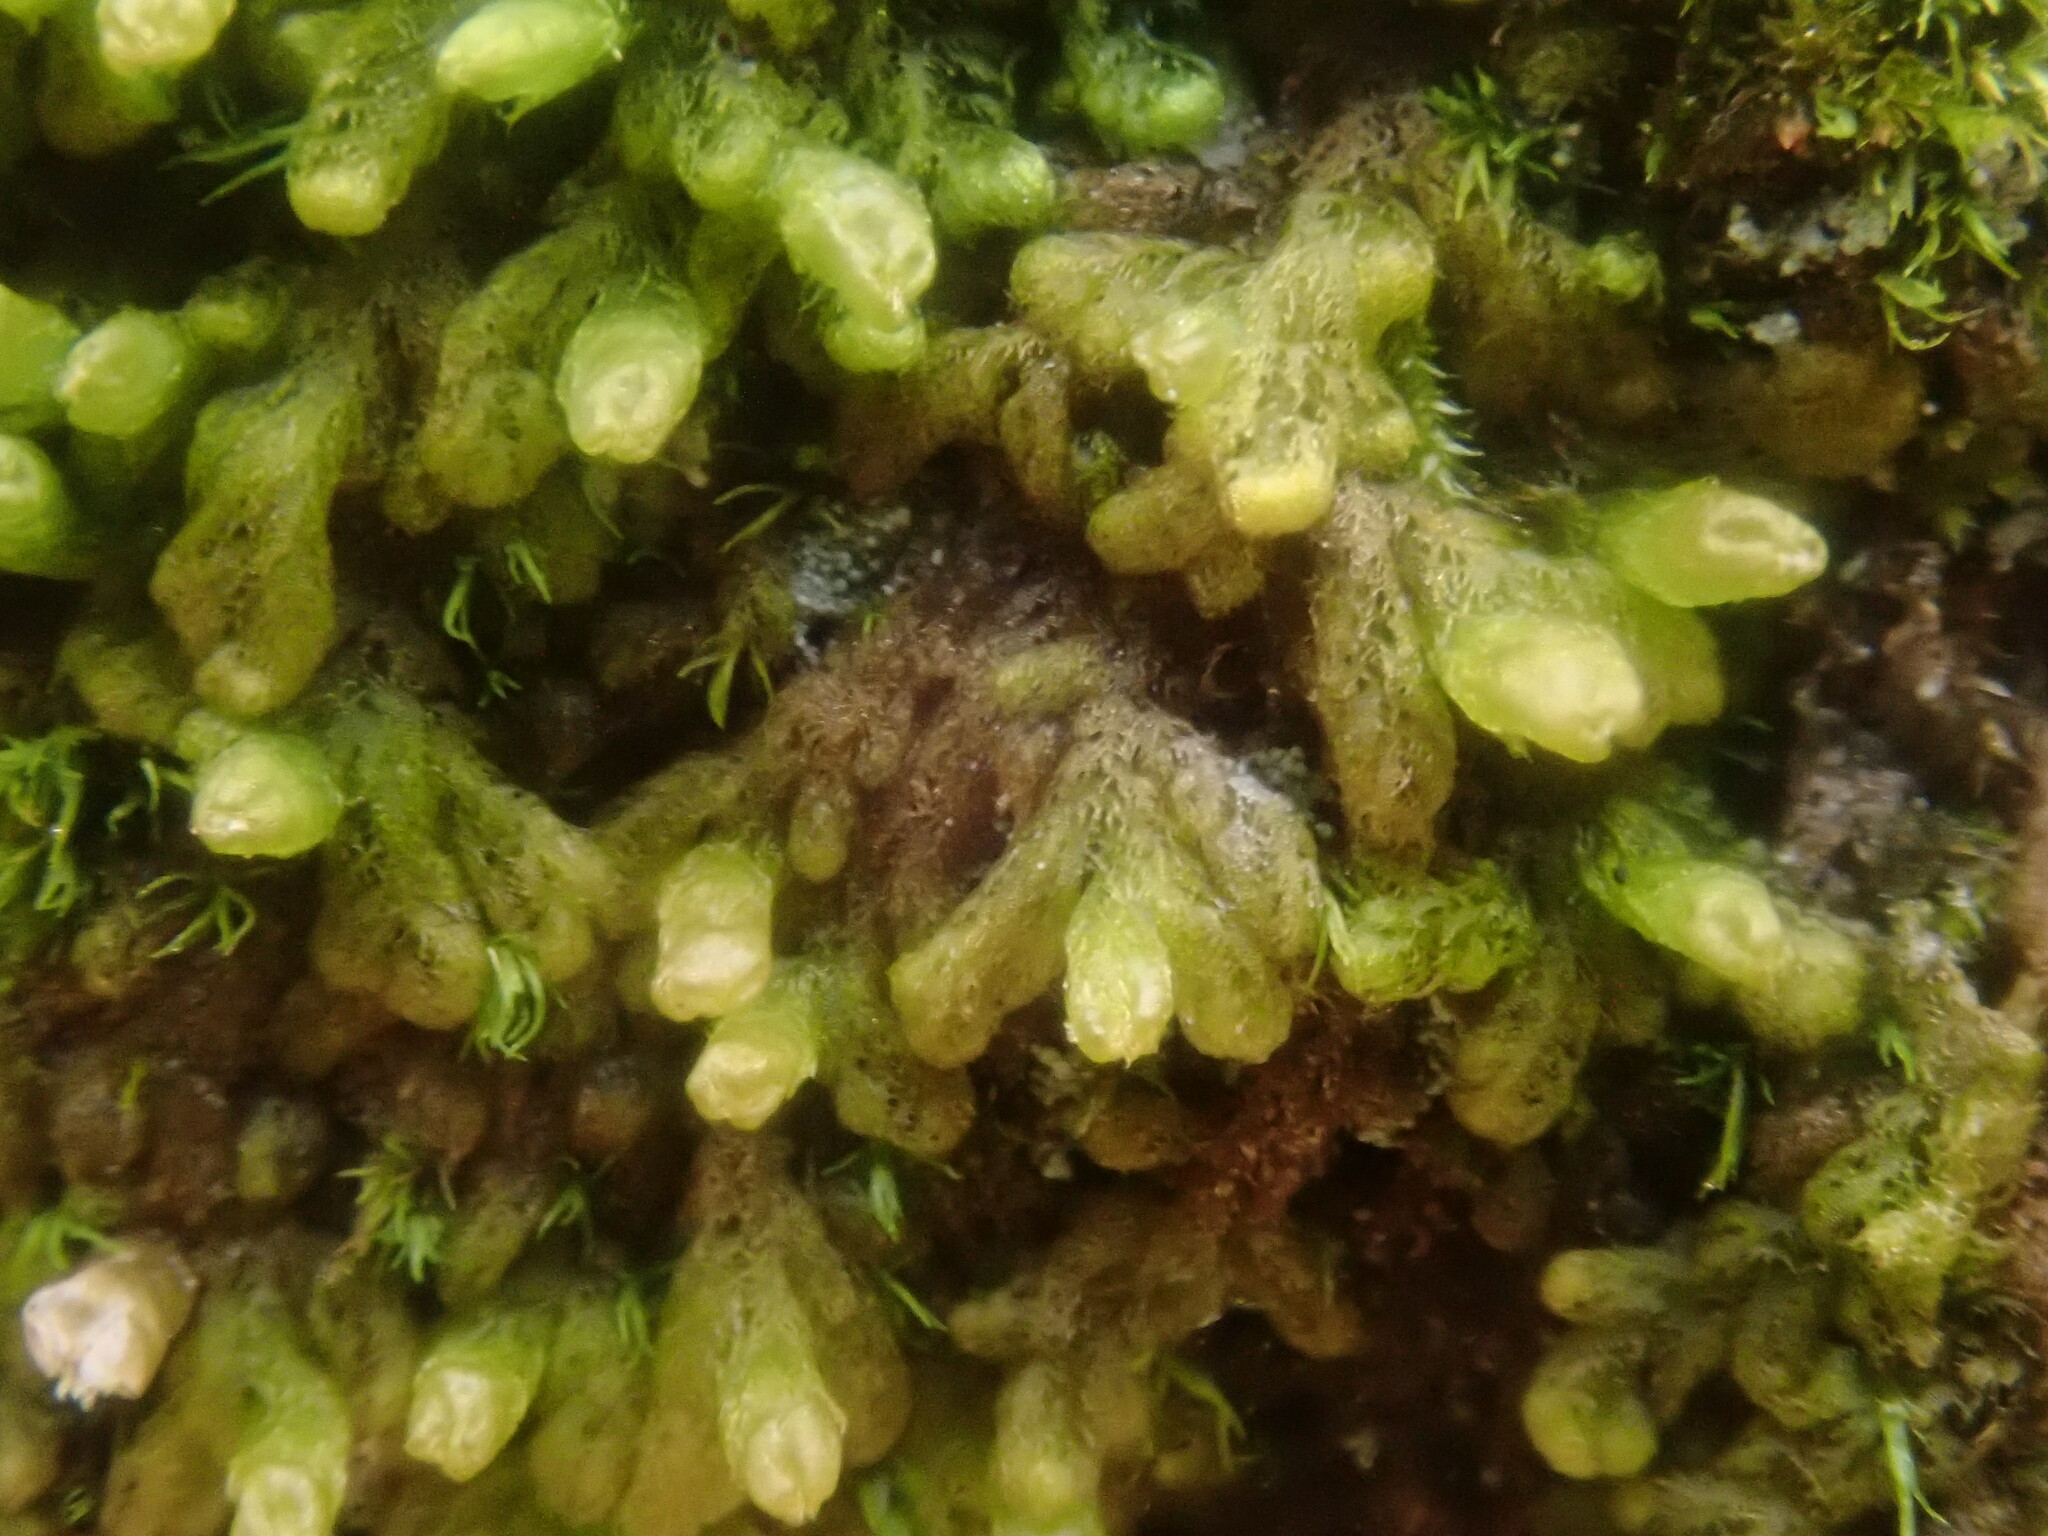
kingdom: Plantae
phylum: Marchantiophyta
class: Jungermanniopsida
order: Ptilidiales
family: Ptilidiaceae
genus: Ptilidium
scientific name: Ptilidium pulcherrimum
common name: Tree fringewort
